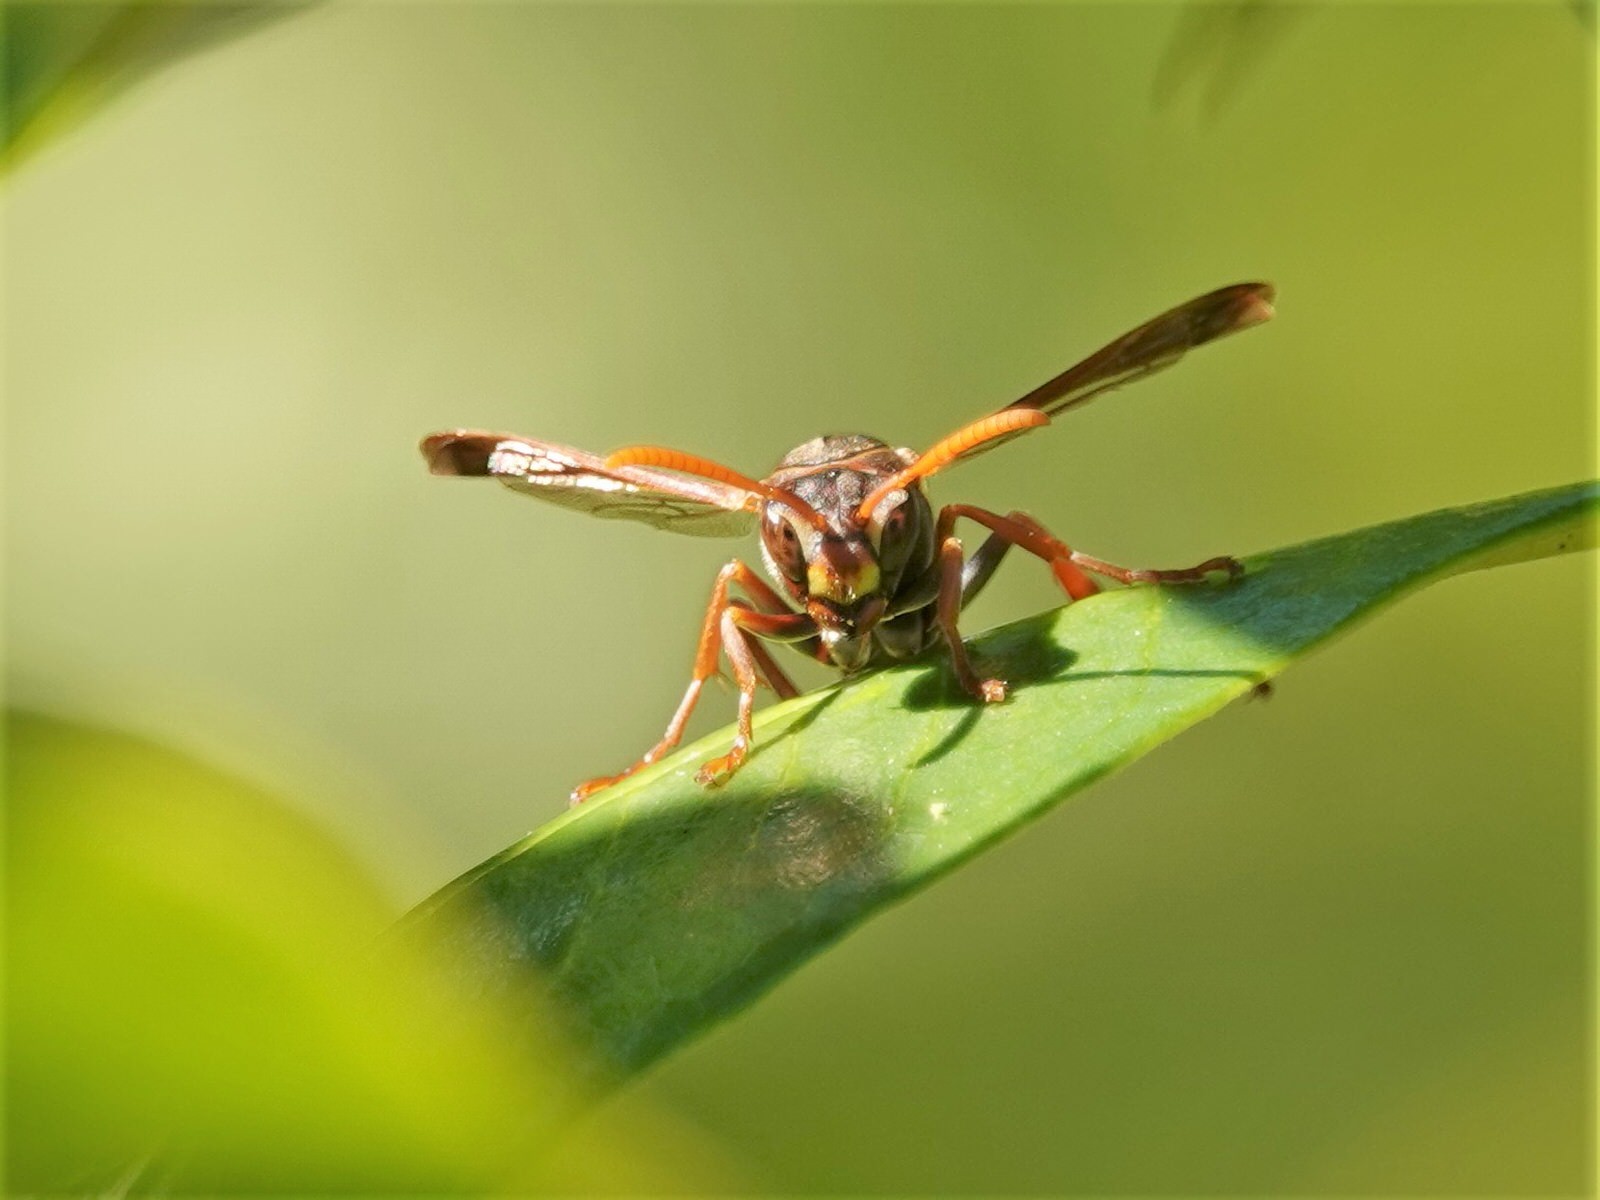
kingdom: Animalia
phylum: Arthropoda
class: Insecta
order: Hymenoptera
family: Eumenidae
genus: Polistes
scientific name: Polistes humilis
